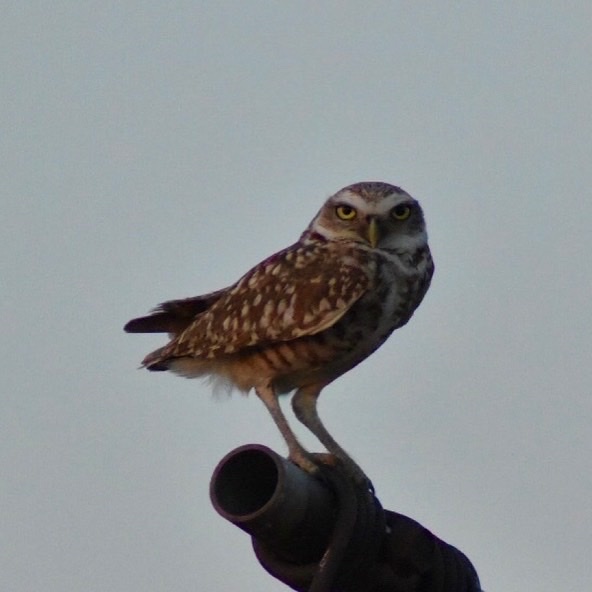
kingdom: Animalia
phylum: Chordata
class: Aves
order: Strigiformes
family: Strigidae
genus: Athene
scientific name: Athene cunicularia
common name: Burrowing owl
